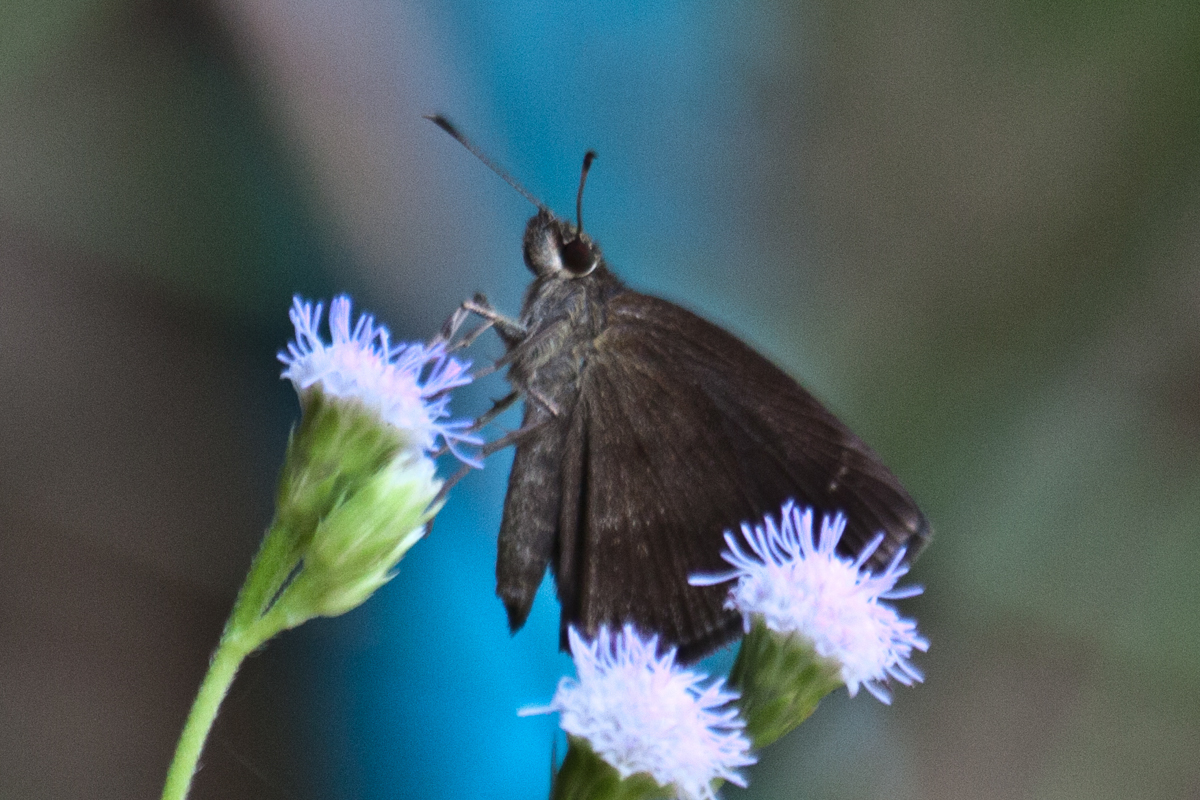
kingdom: Animalia
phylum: Arthropoda
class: Insecta
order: Lepidoptera
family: Hesperiidae
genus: Astictopterus
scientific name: Astictopterus jama
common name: Forest hopper
